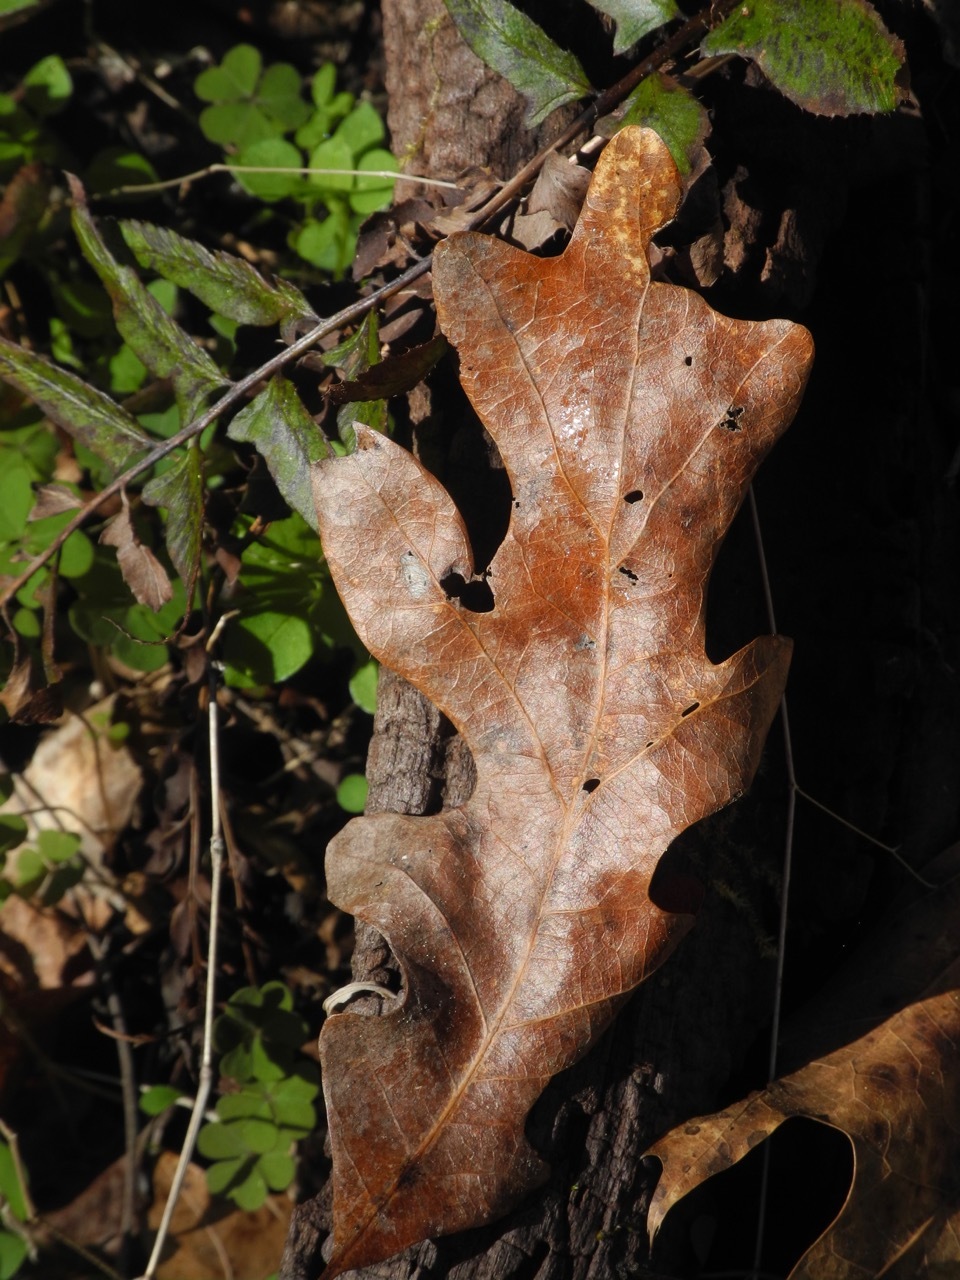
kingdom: Plantae
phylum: Tracheophyta
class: Magnoliopsida
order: Fagales
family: Fagaceae
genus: Quercus
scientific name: Quercus alba
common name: White oak
